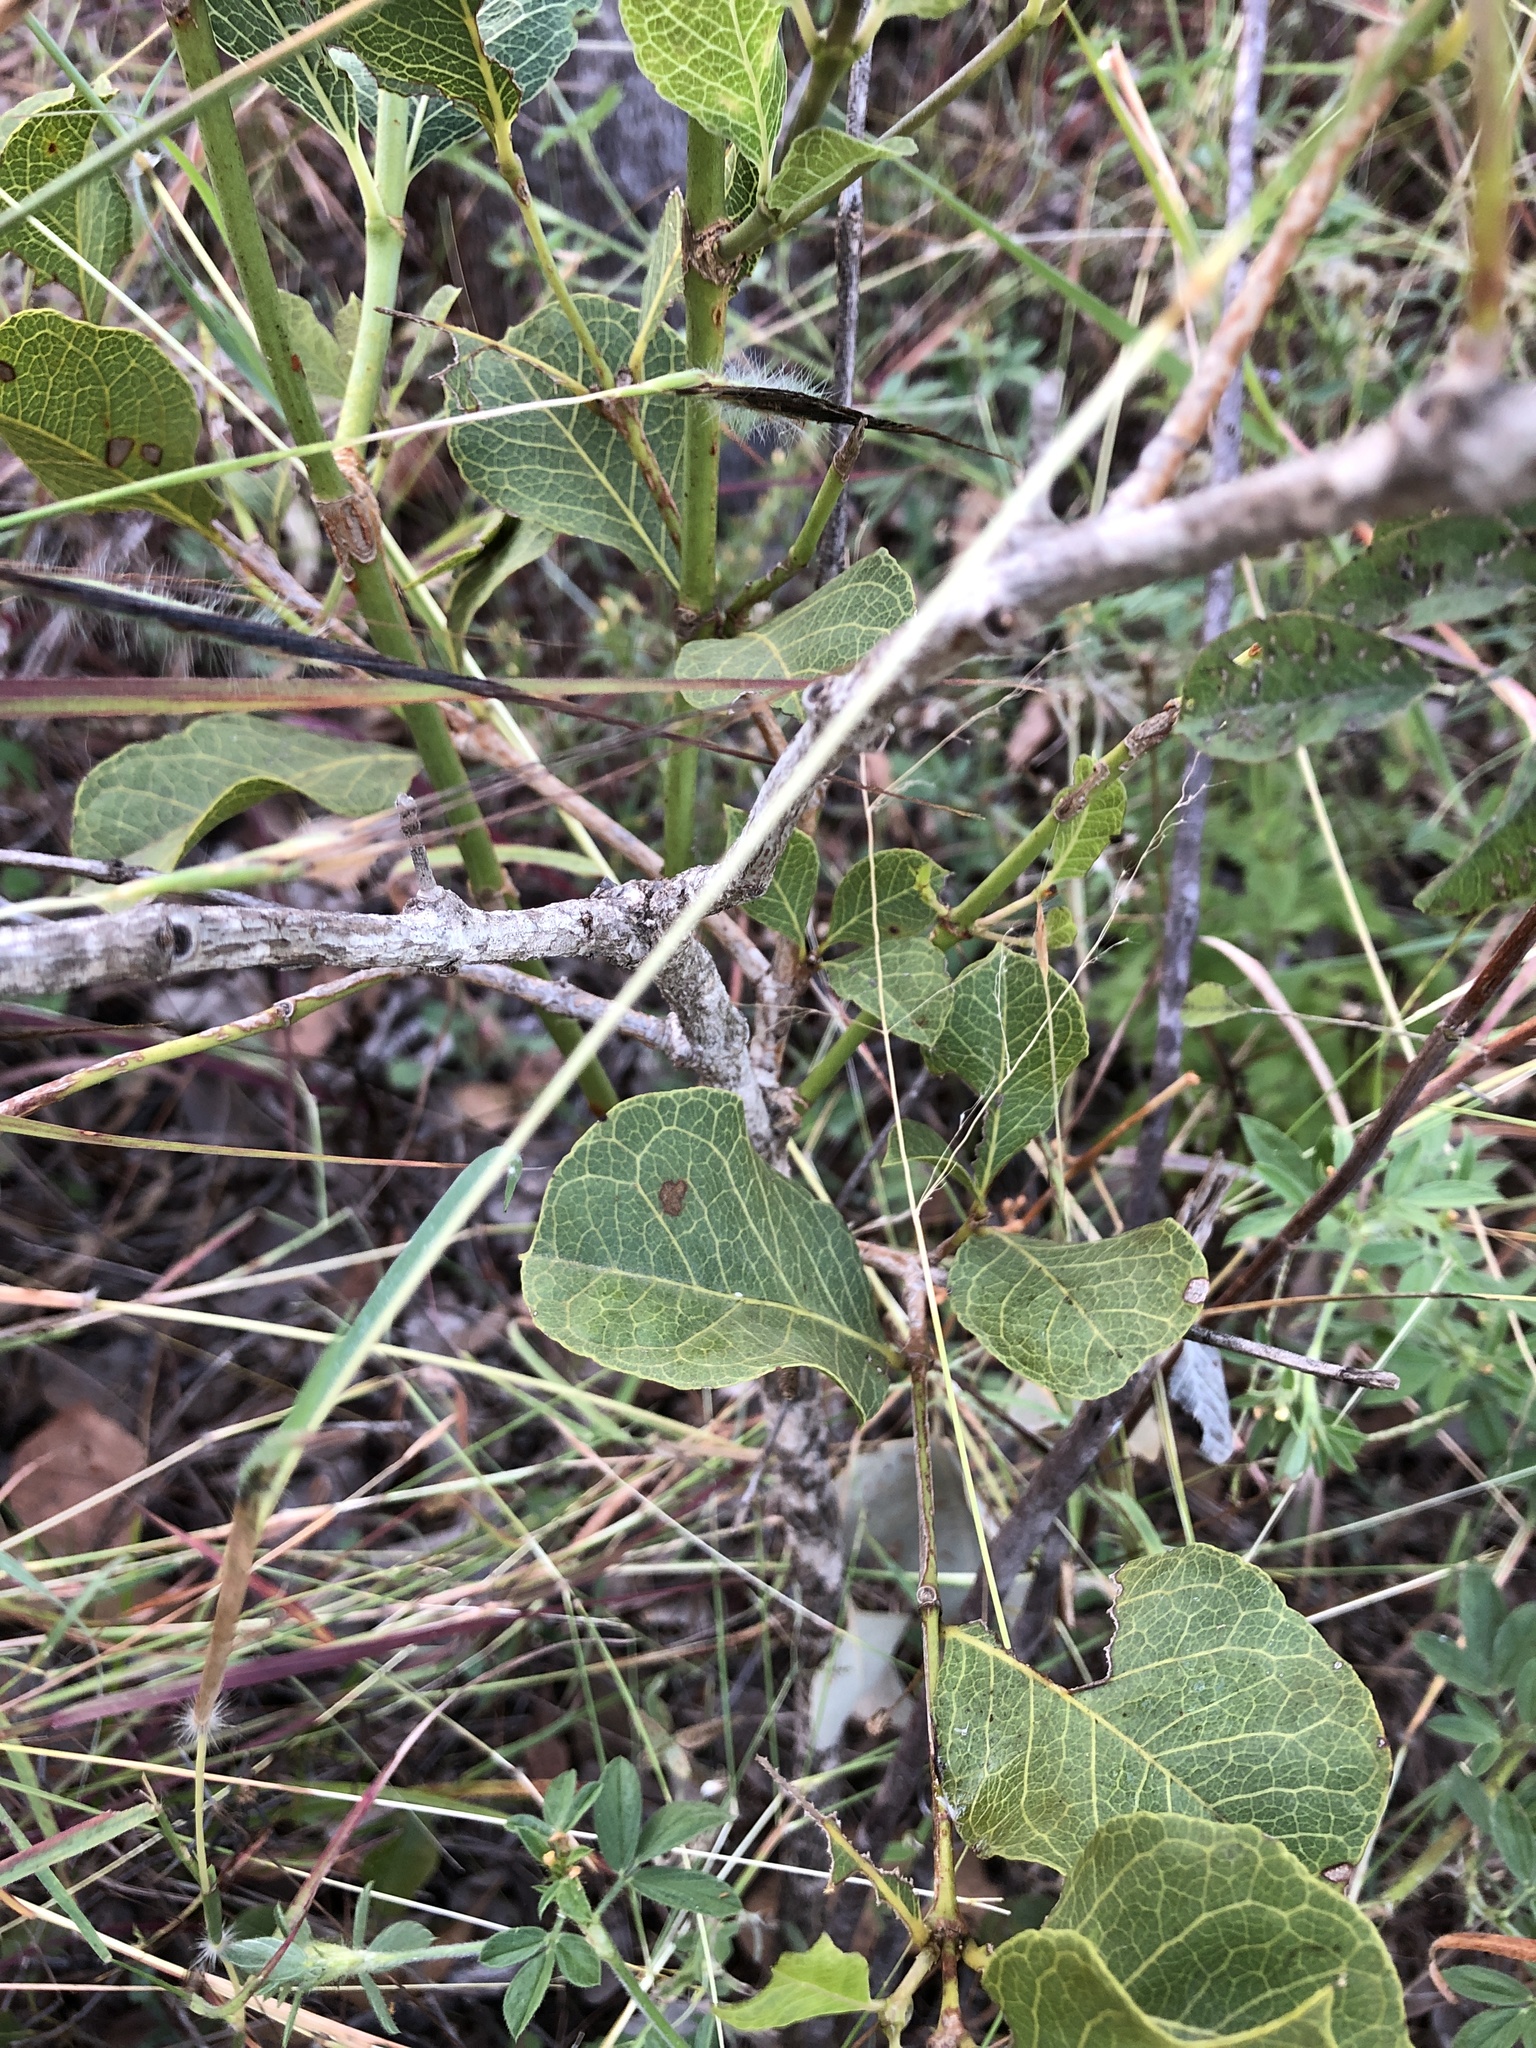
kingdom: Plantae
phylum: Tracheophyta
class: Magnoliopsida
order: Gentianales
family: Rubiaceae
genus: Coelospermum
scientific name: Coelospermum reticulatum
